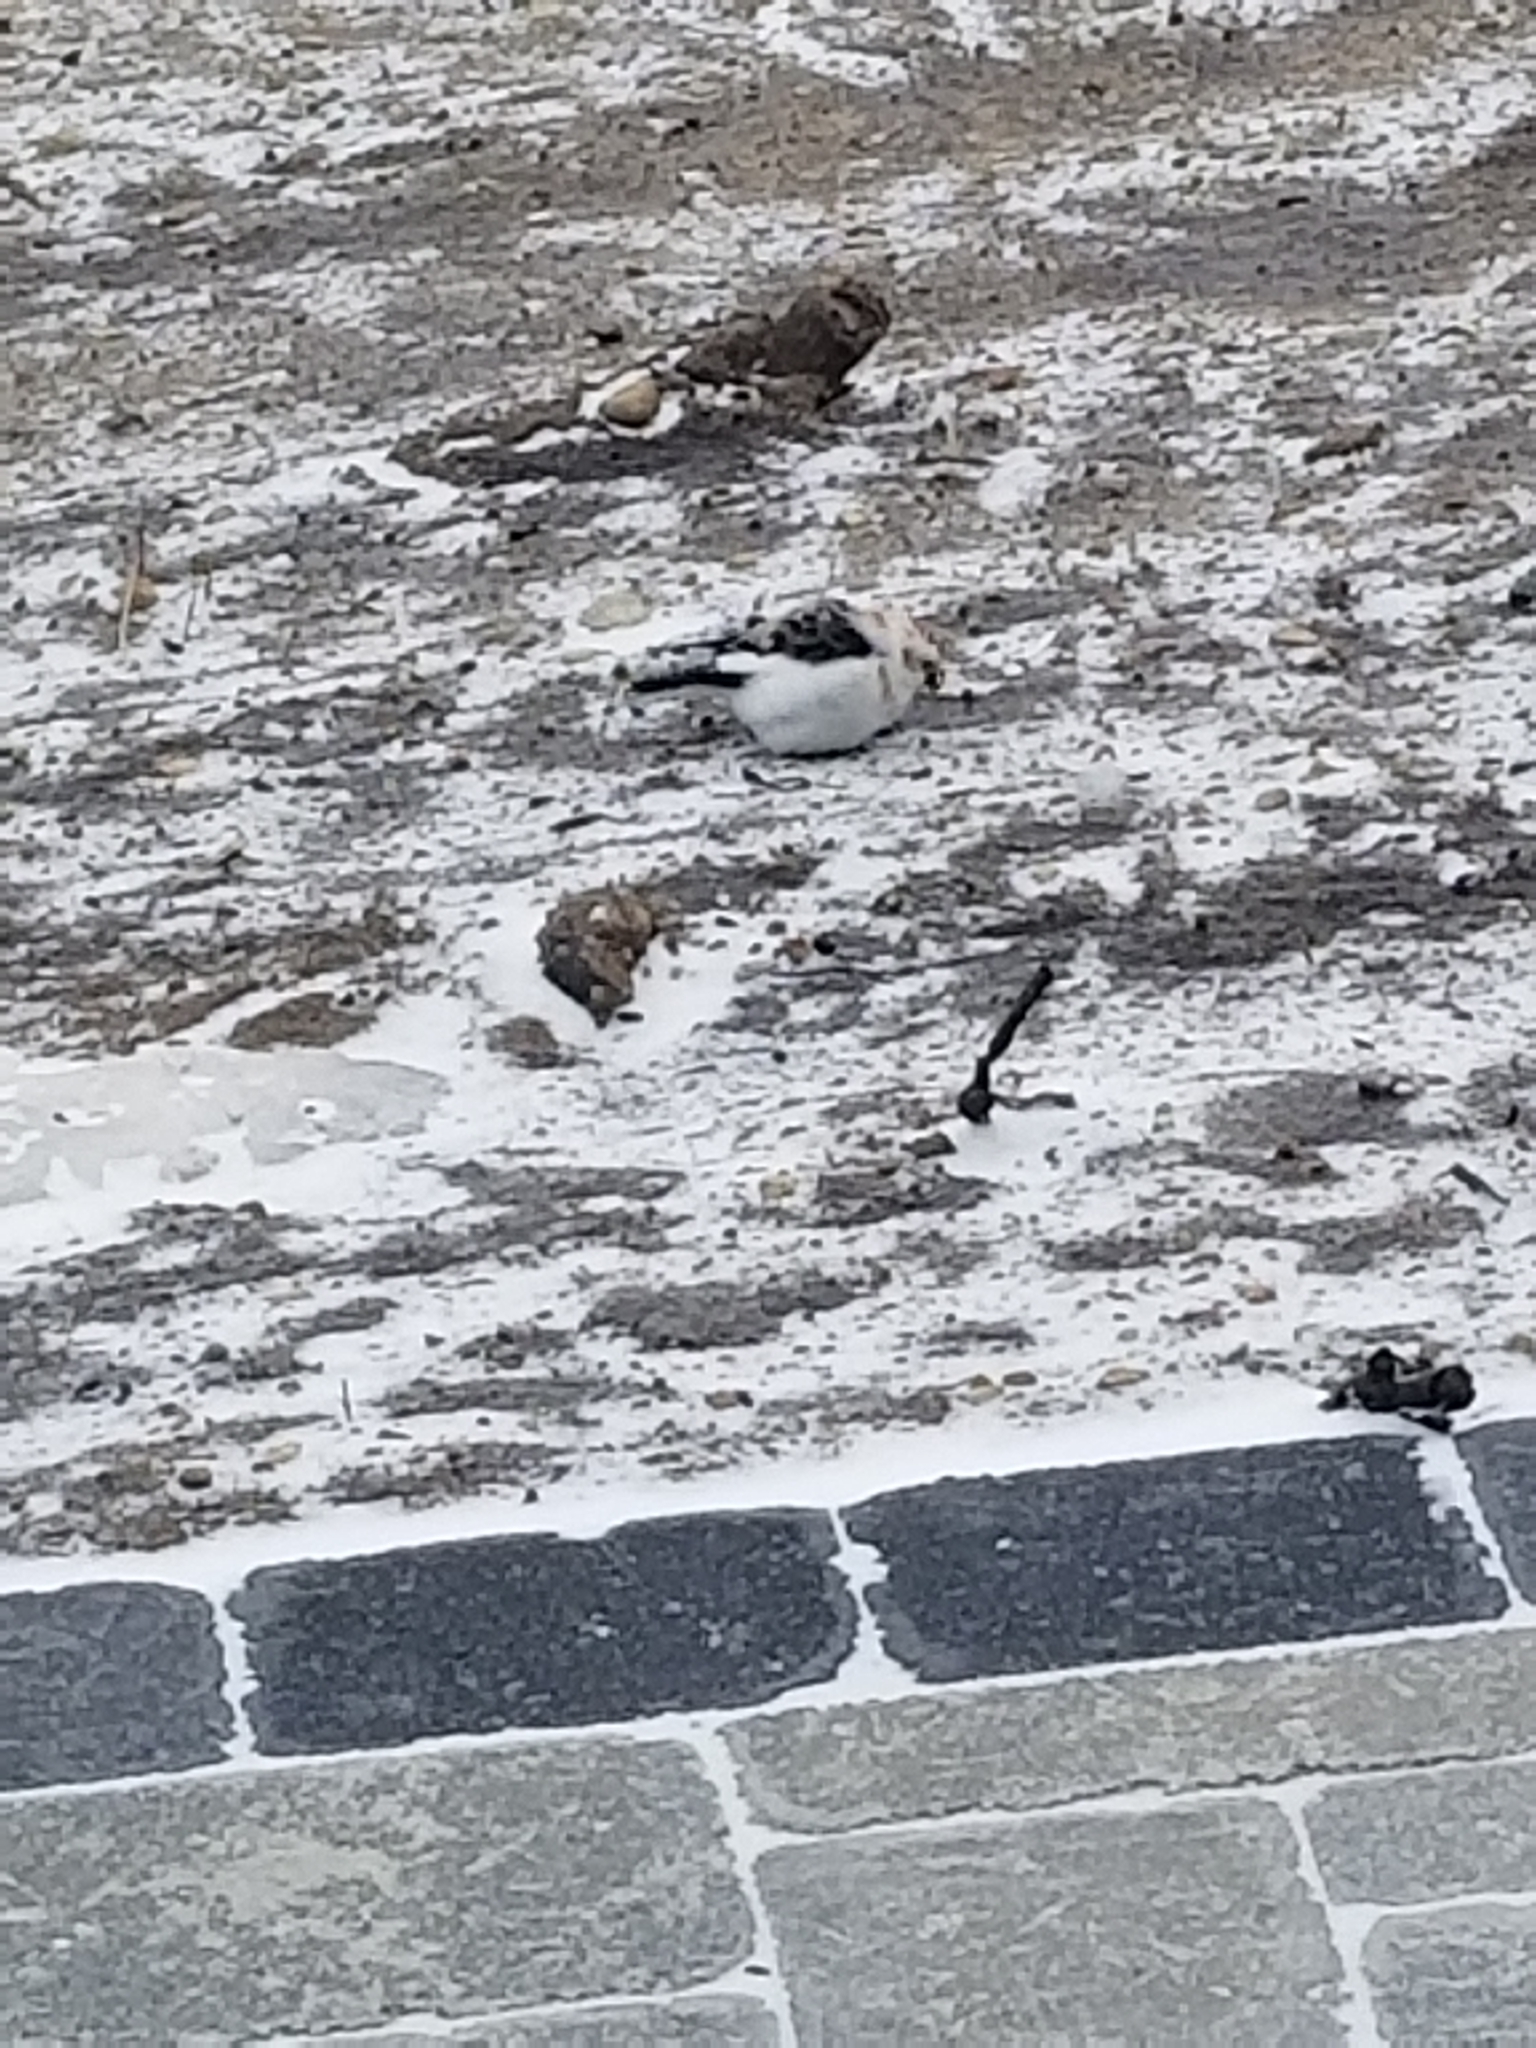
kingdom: Animalia
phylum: Chordata
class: Aves
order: Passeriformes
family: Calcariidae
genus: Plectrophenax
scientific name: Plectrophenax nivalis
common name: Snow bunting
